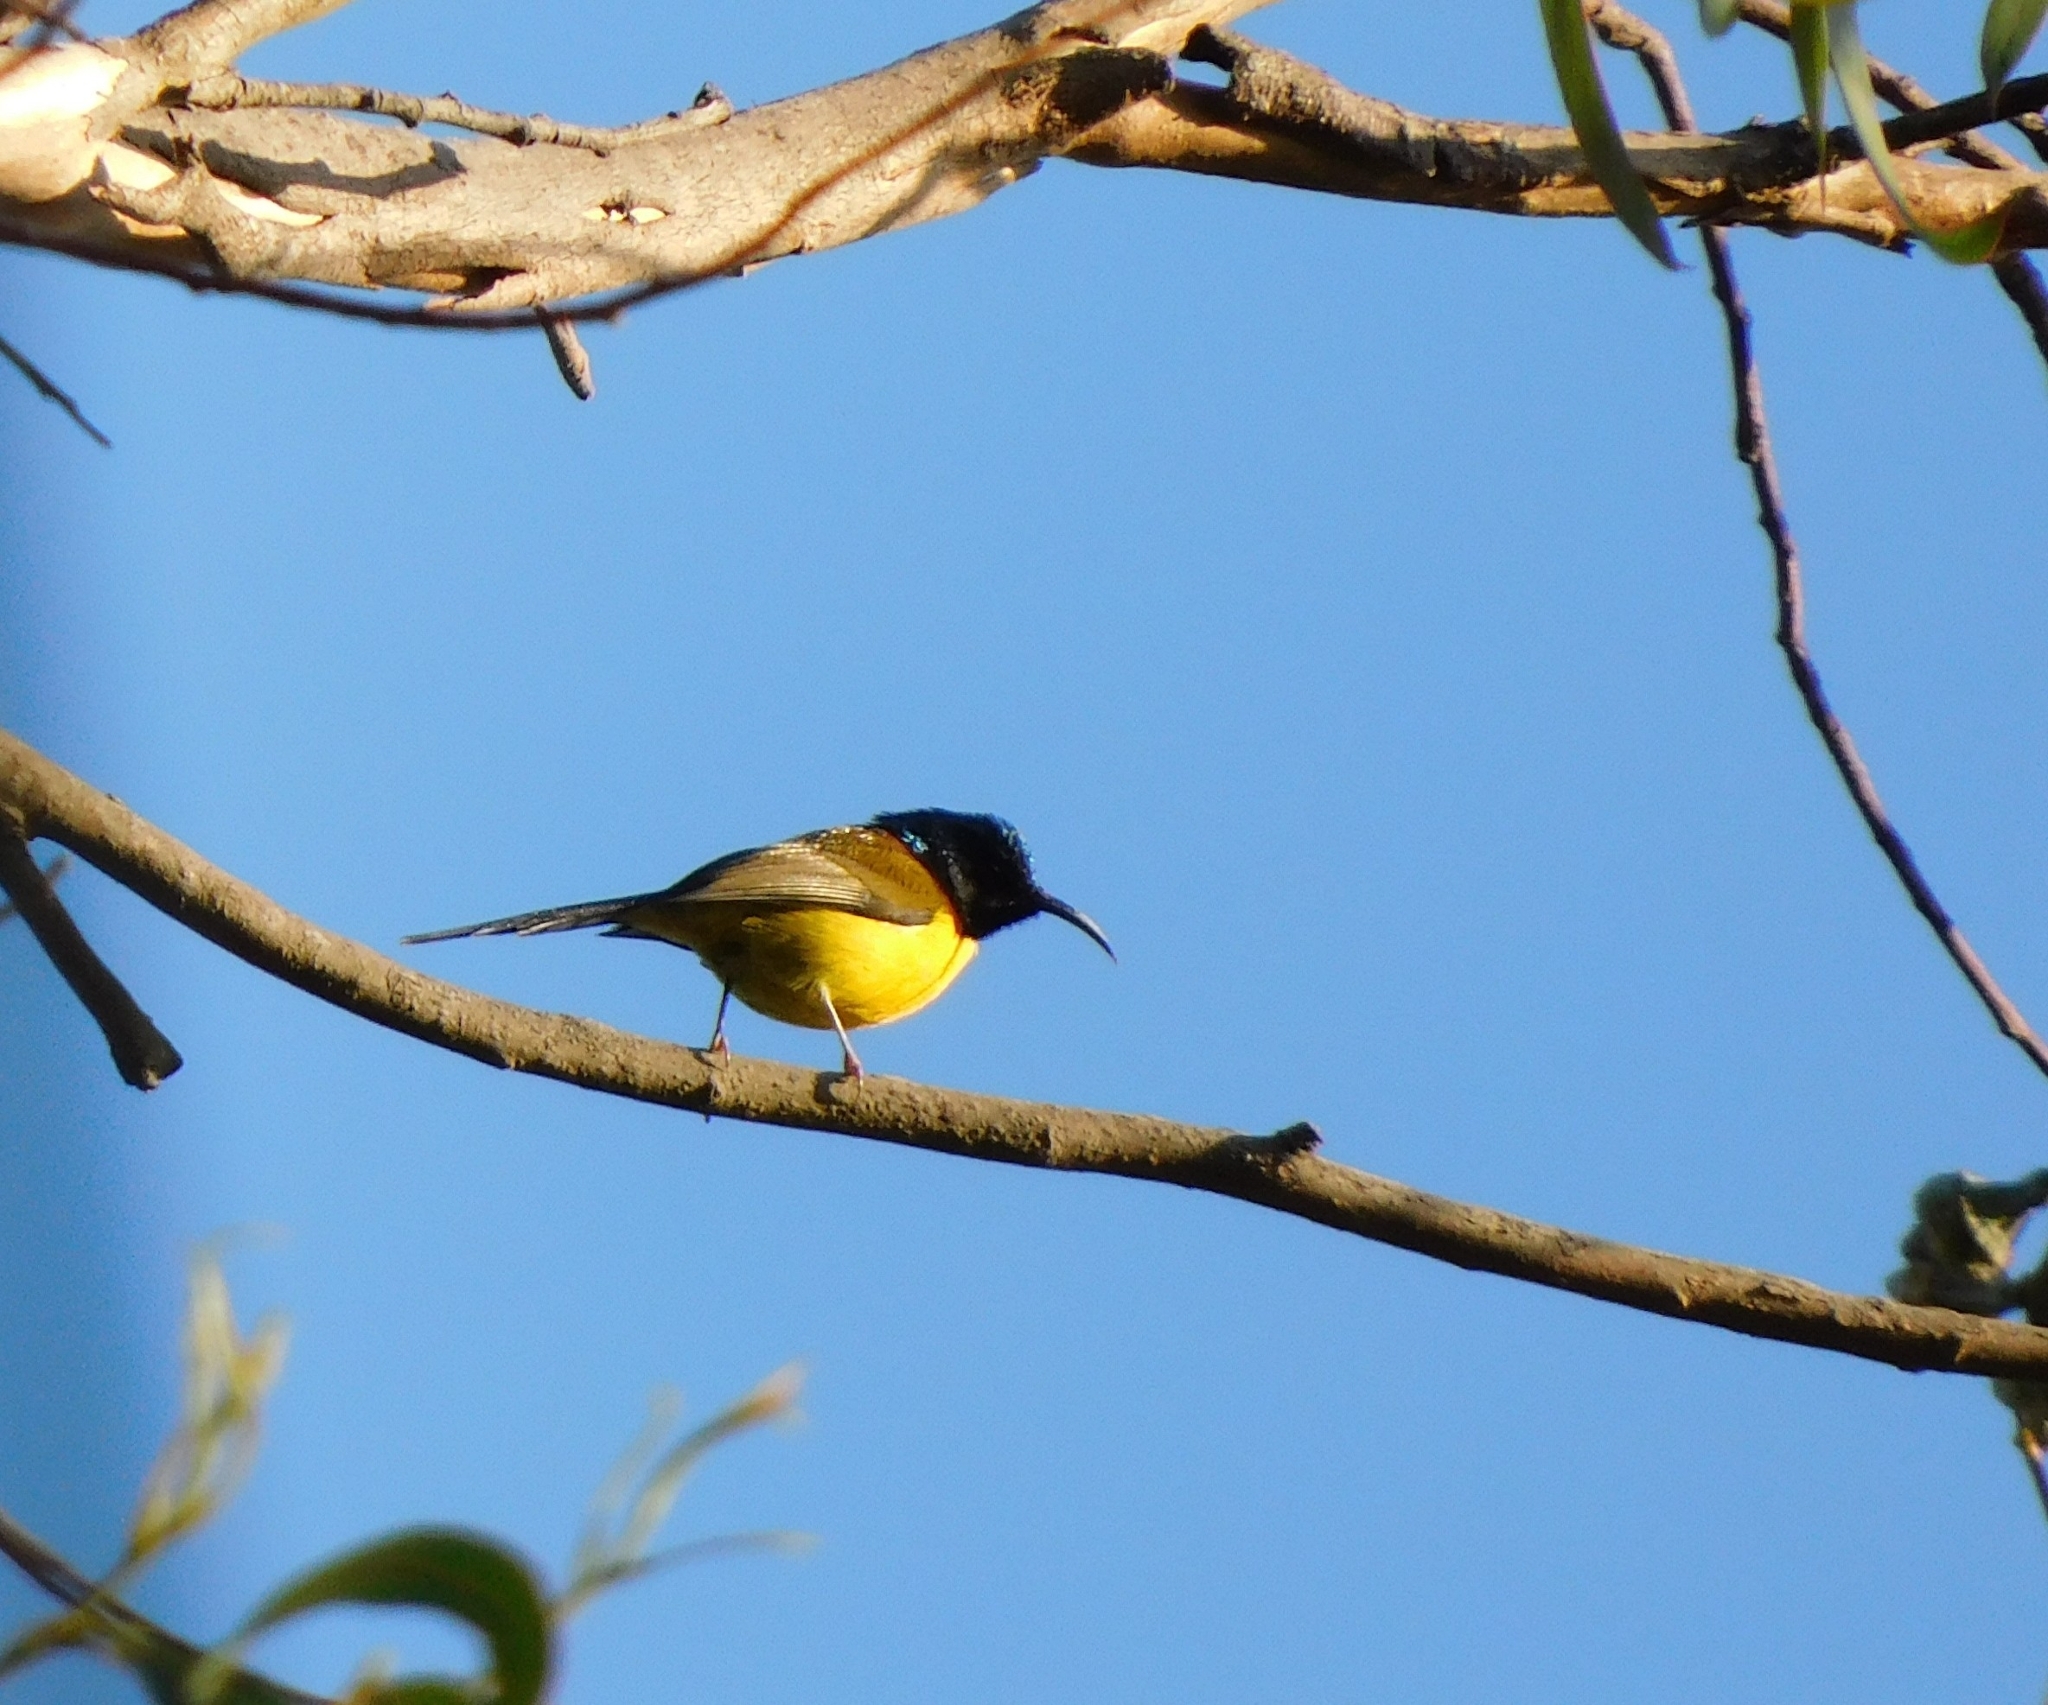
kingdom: Animalia
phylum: Chordata
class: Aves
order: Passeriformes
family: Nectariniidae
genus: Aethopyga
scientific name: Aethopyga nipalensis
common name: Green-tailed sunbird
